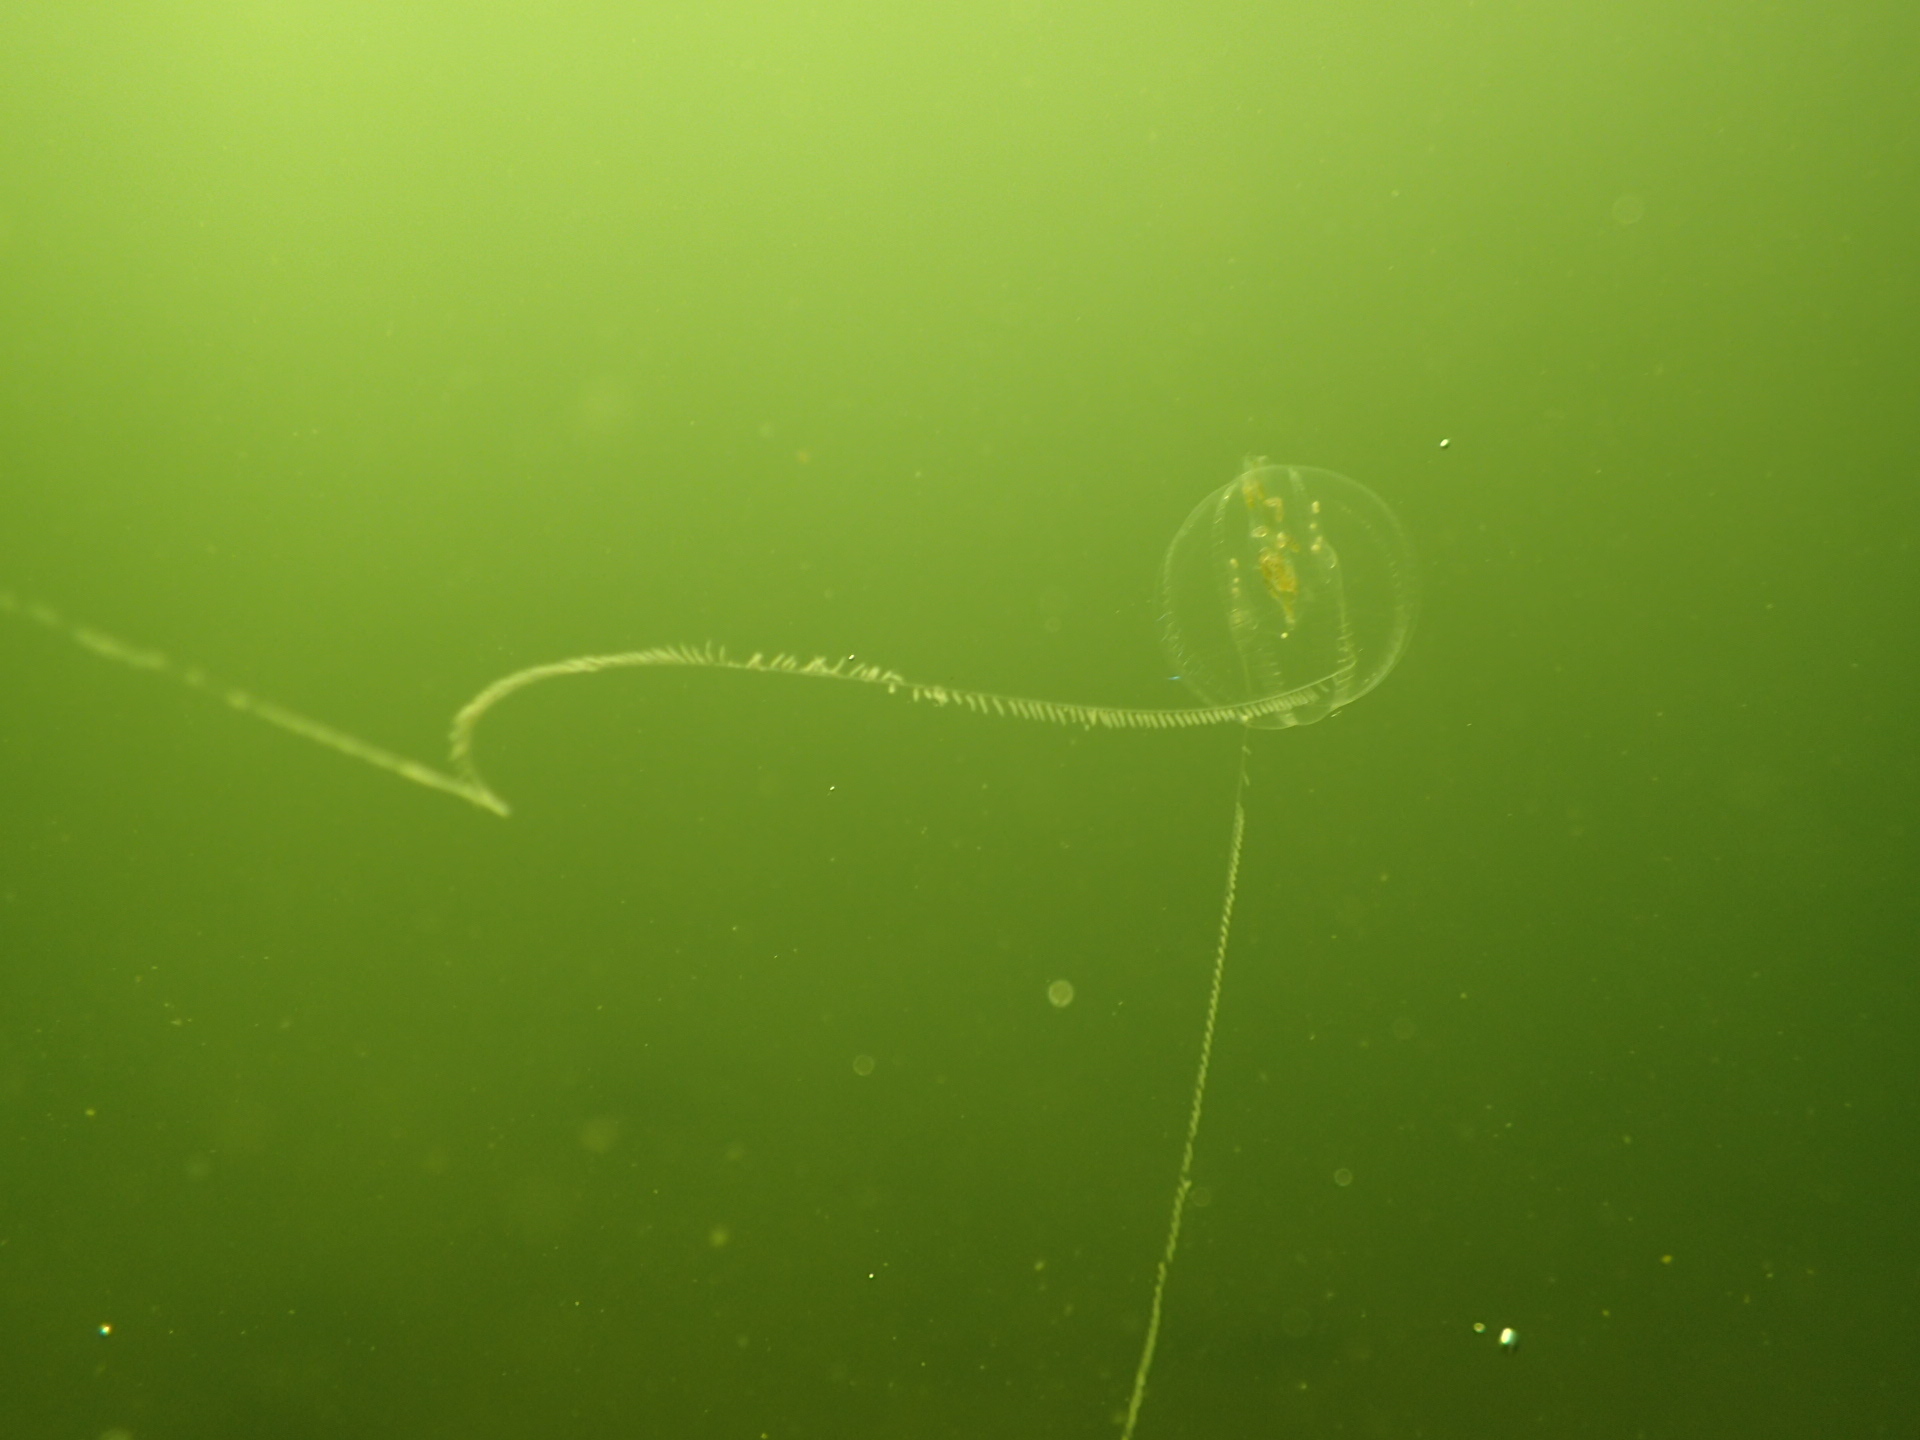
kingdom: Animalia
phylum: Ctenophora
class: Tentaculata
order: Cydippida
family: Pleurobrachiidae
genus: Pleurobrachia
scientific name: Pleurobrachia pileus
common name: Sea gooseberry
